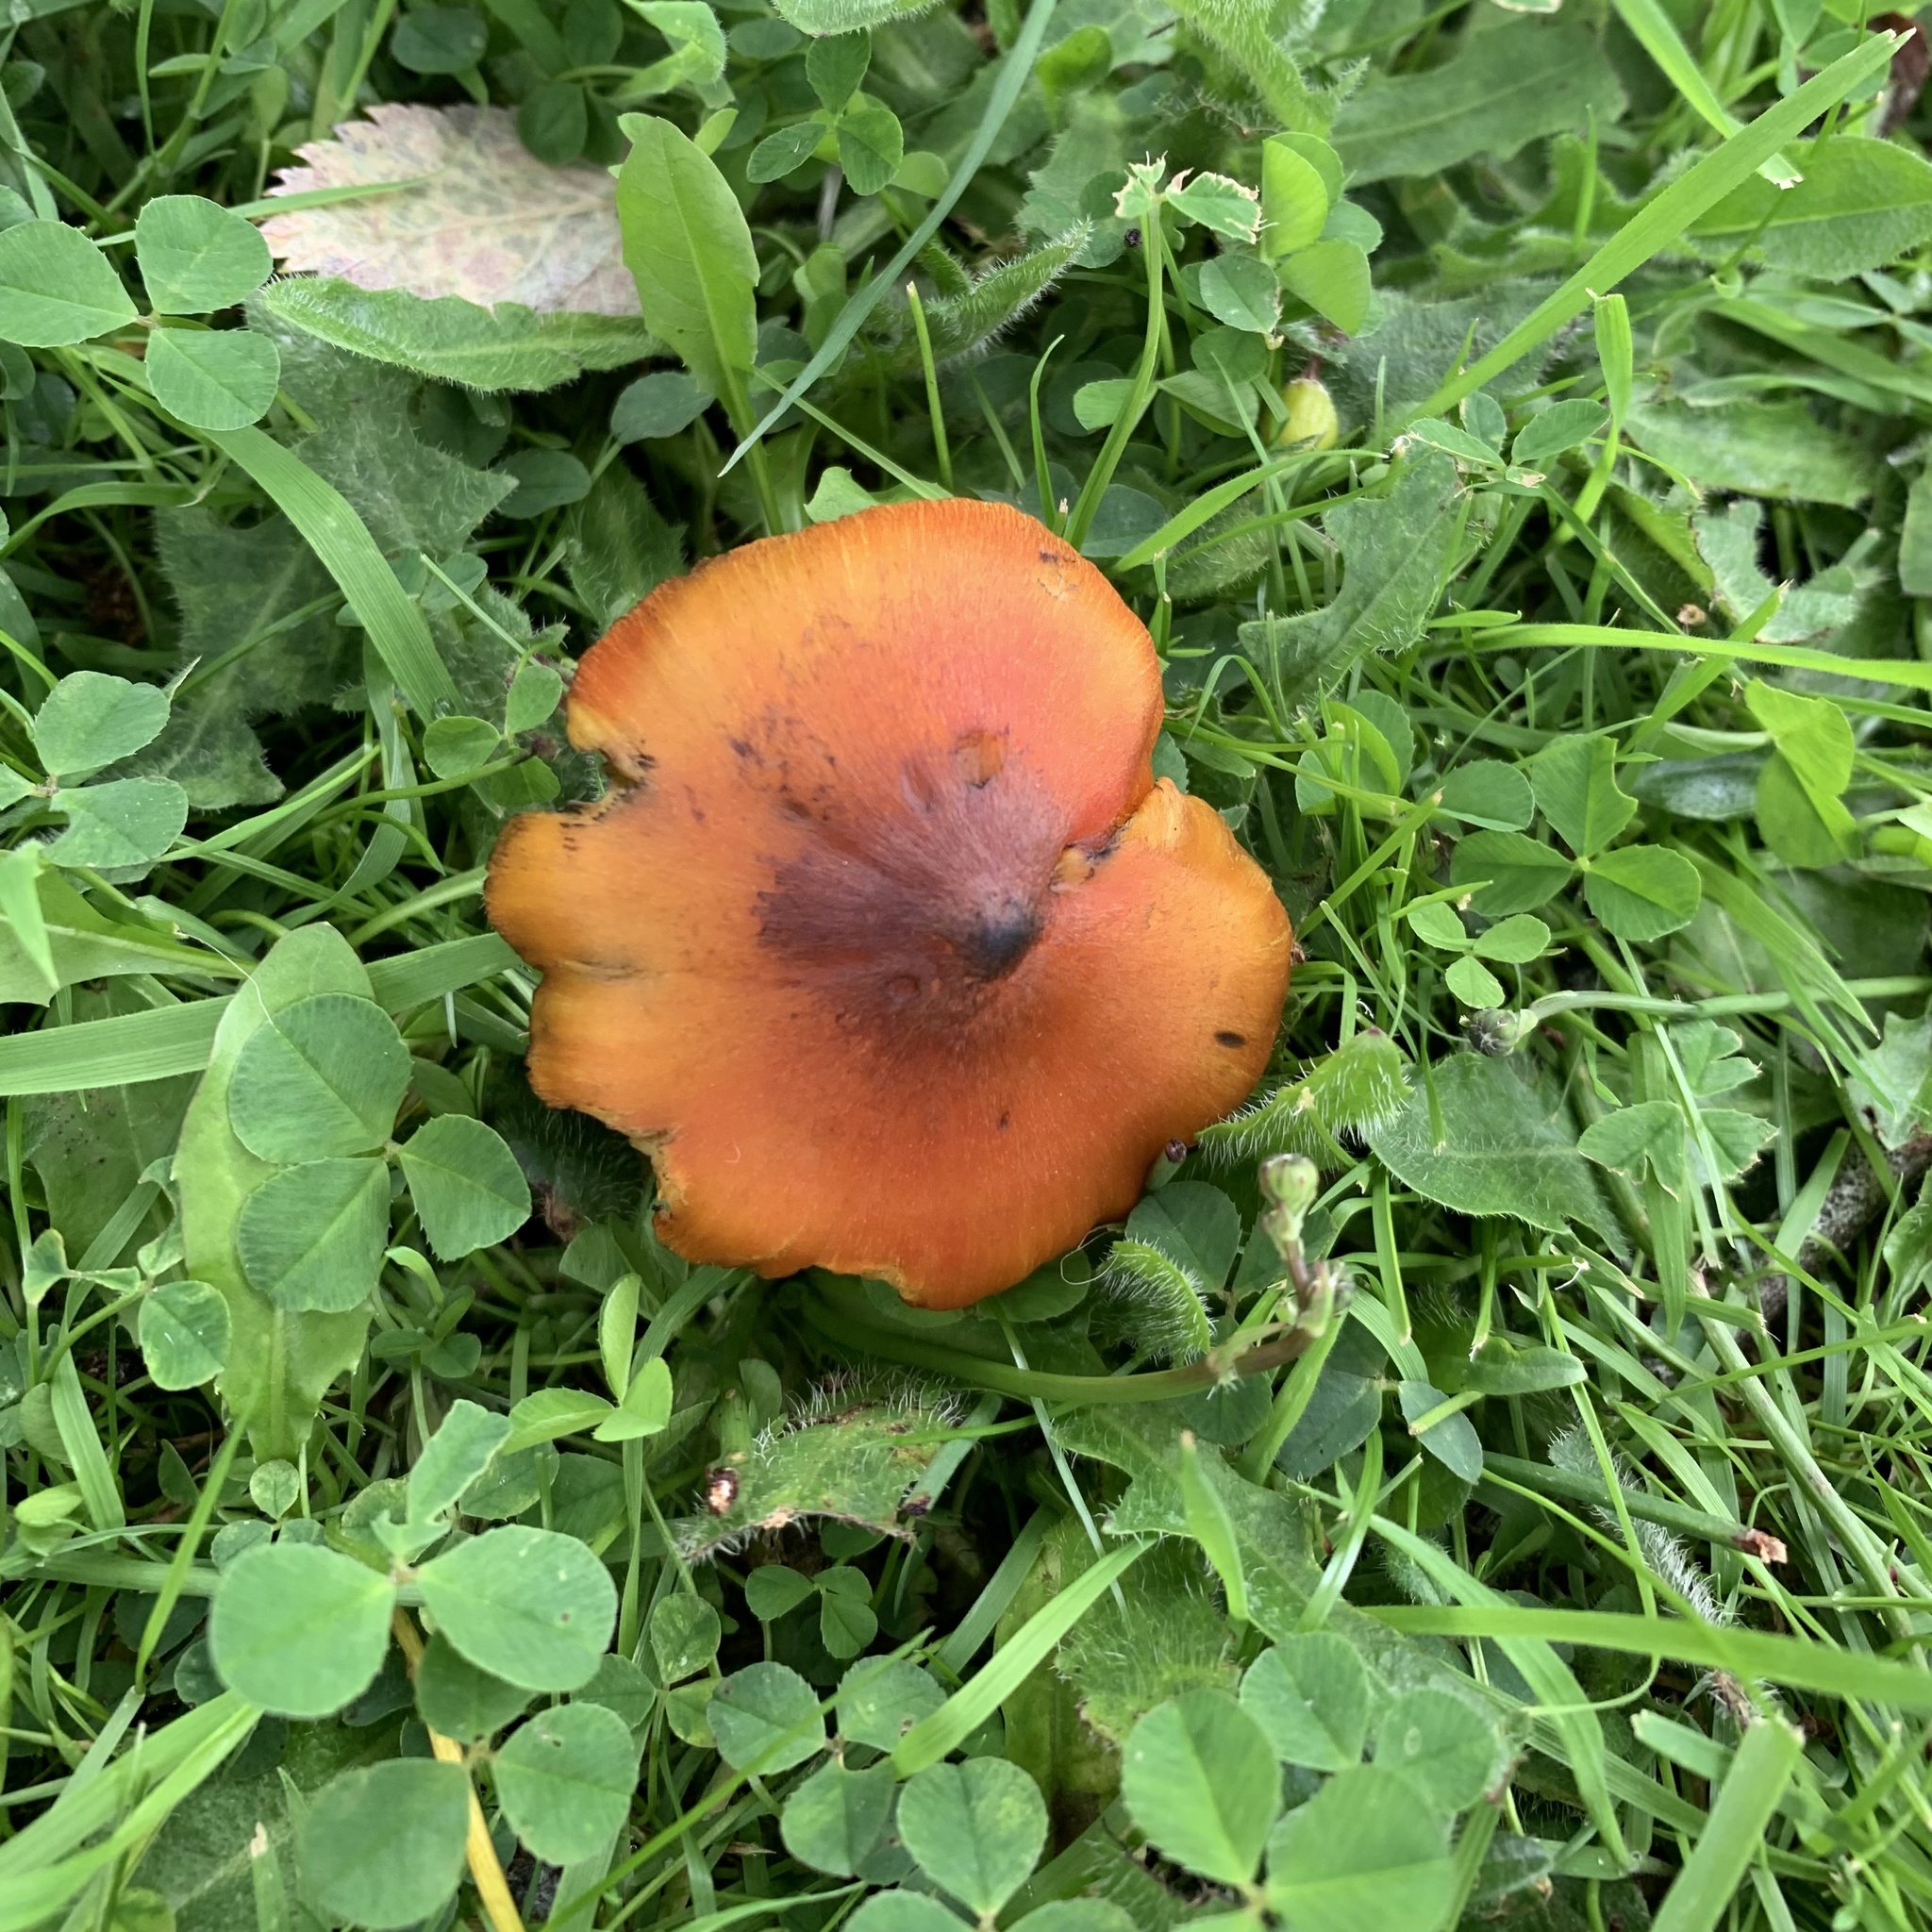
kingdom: Fungi
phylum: Basidiomycota
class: Agaricomycetes
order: Agaricales
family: Hygrophoraceae
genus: Hygrocybe
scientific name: Hygrocybe conica
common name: Blackening wax-cap
